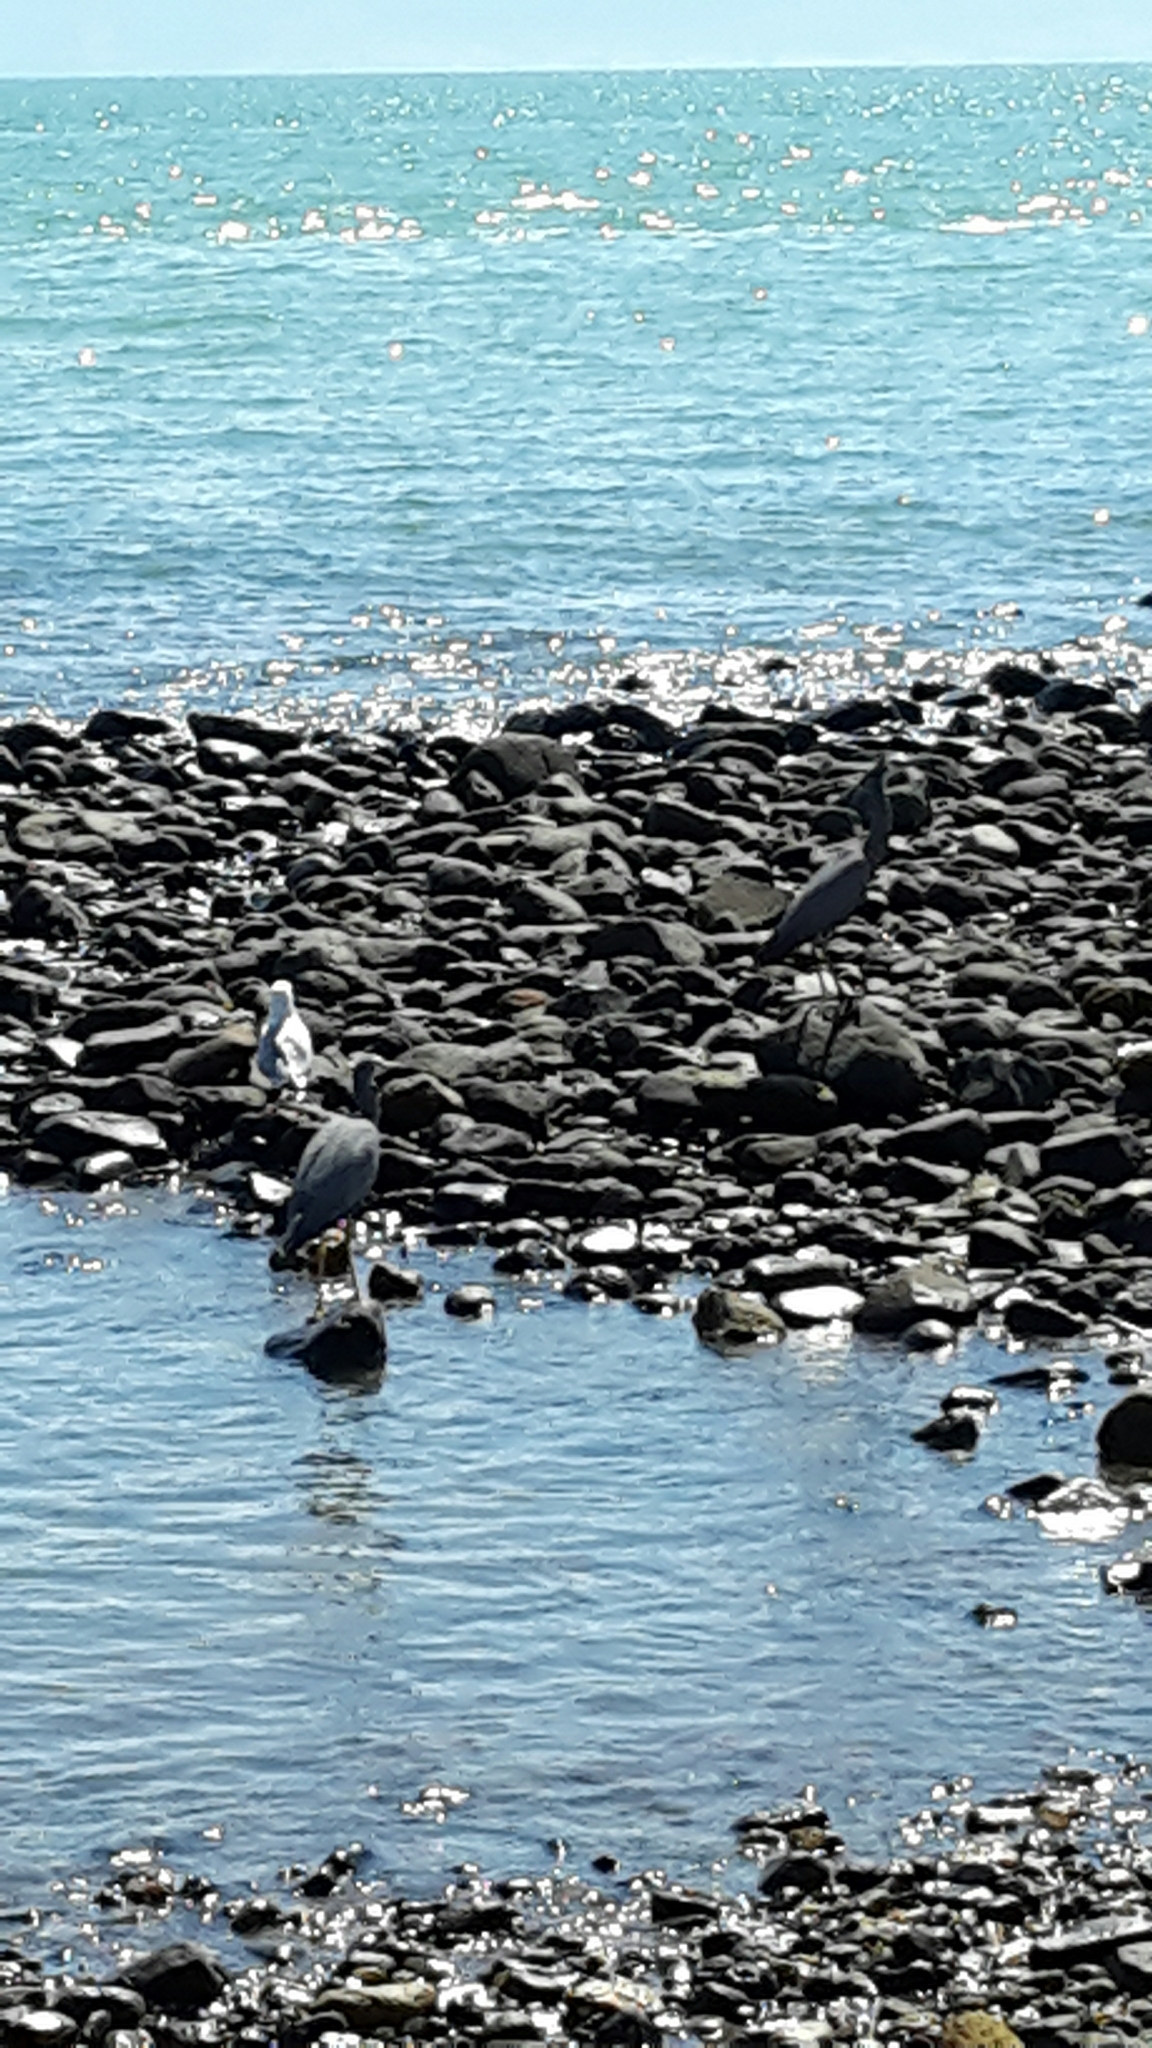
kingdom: Animalia
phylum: Chordata
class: Aves
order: Pelecaniformes
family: Ardeidae
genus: Egretta
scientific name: Egretta novaehollandiae
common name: White-faced heron
